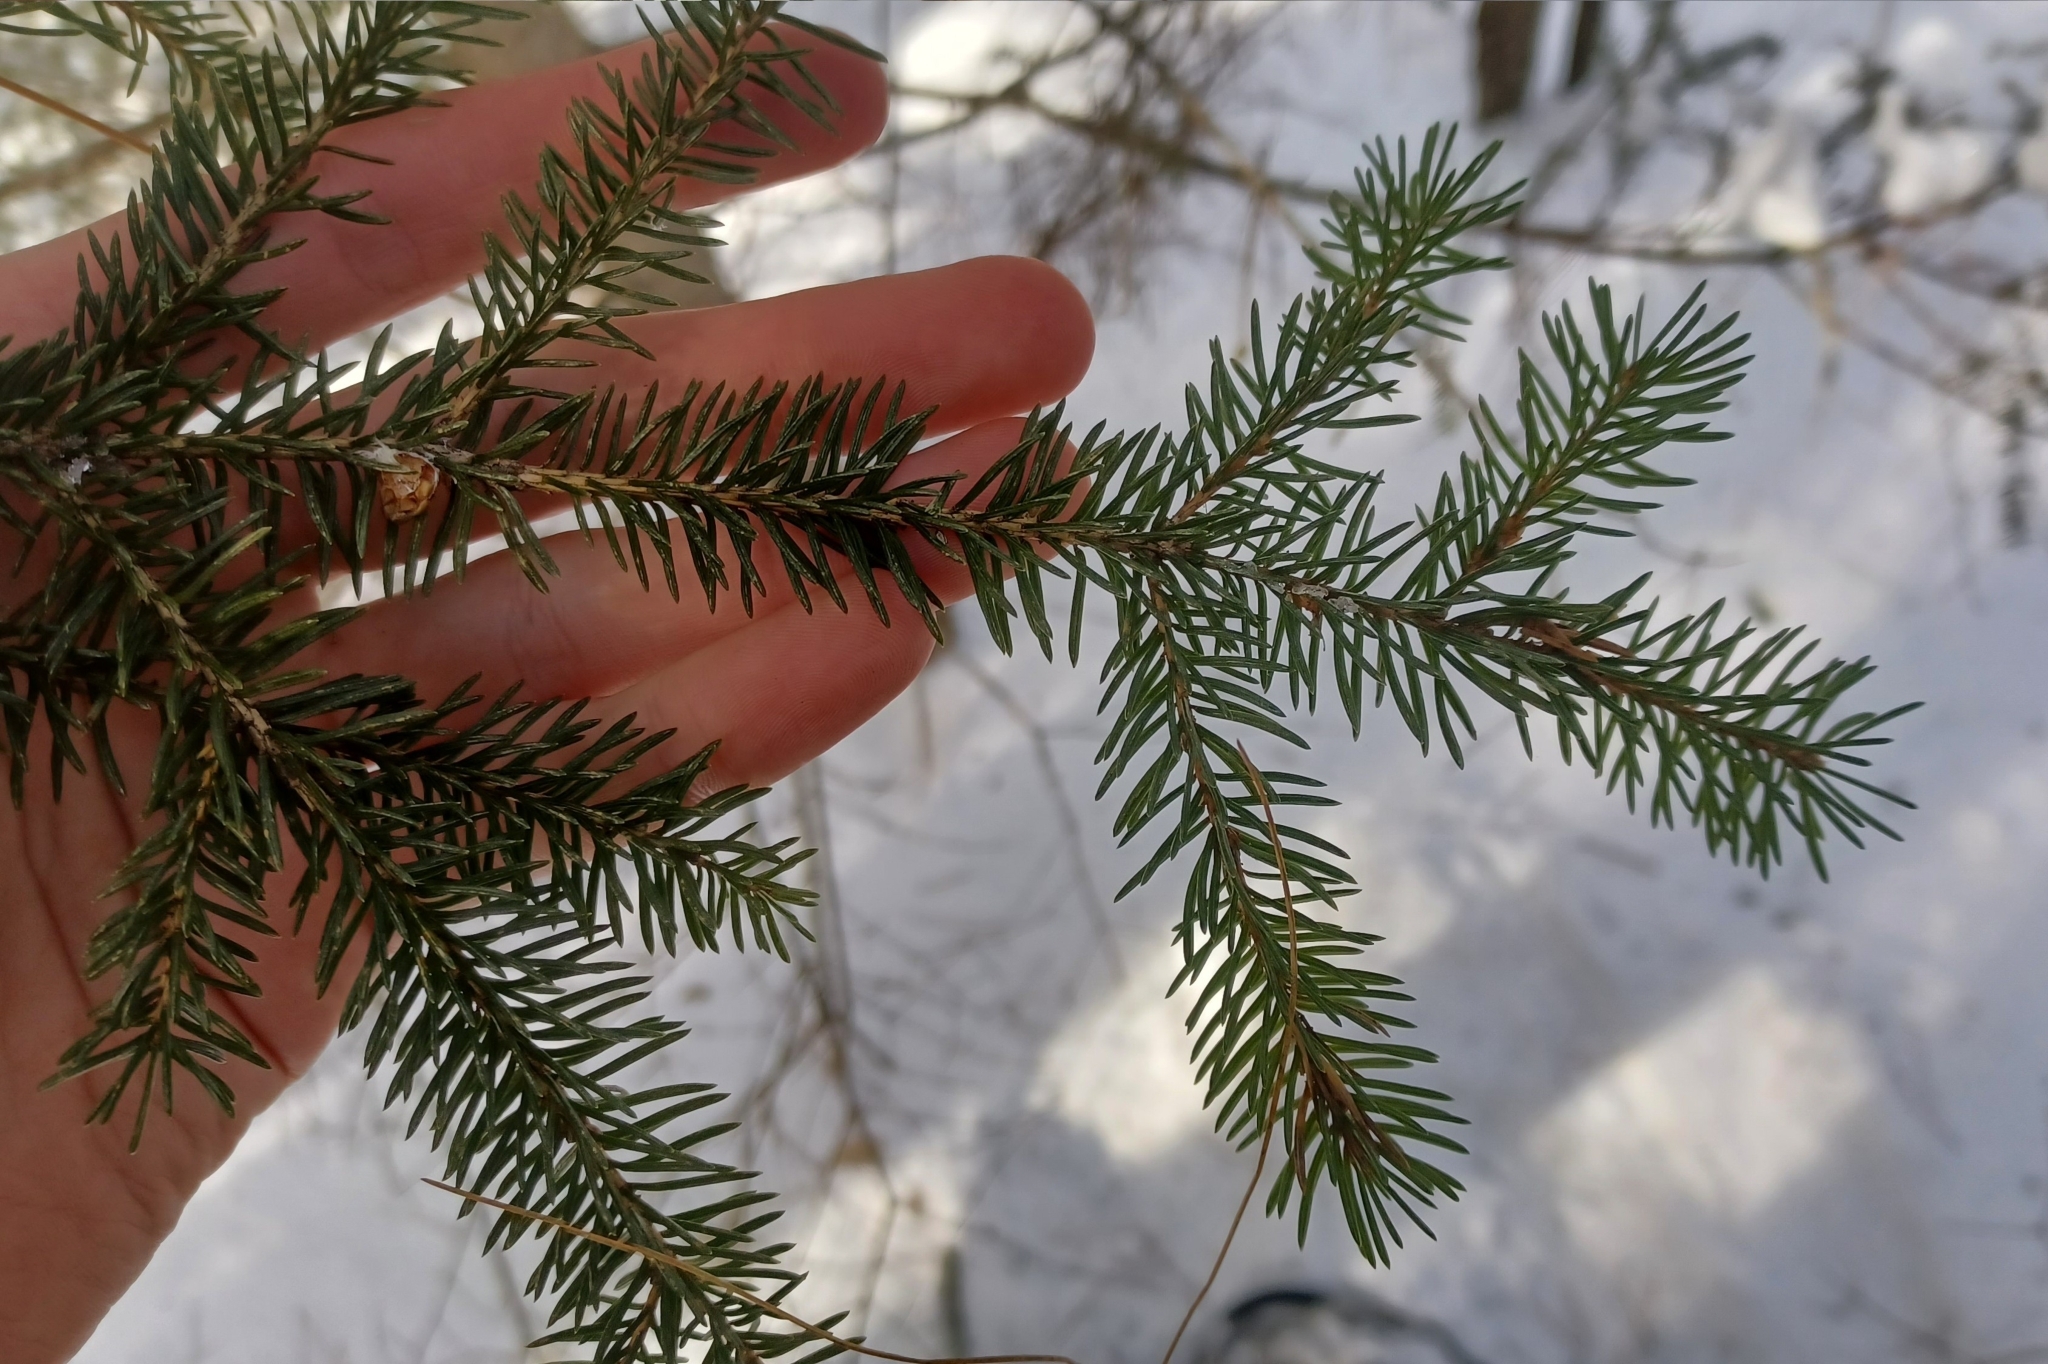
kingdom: Plantae
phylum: Tracheophyta
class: Pinopsida
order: Pinales
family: Pinaceae
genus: Picea
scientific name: Picea glauca
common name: White spruce
